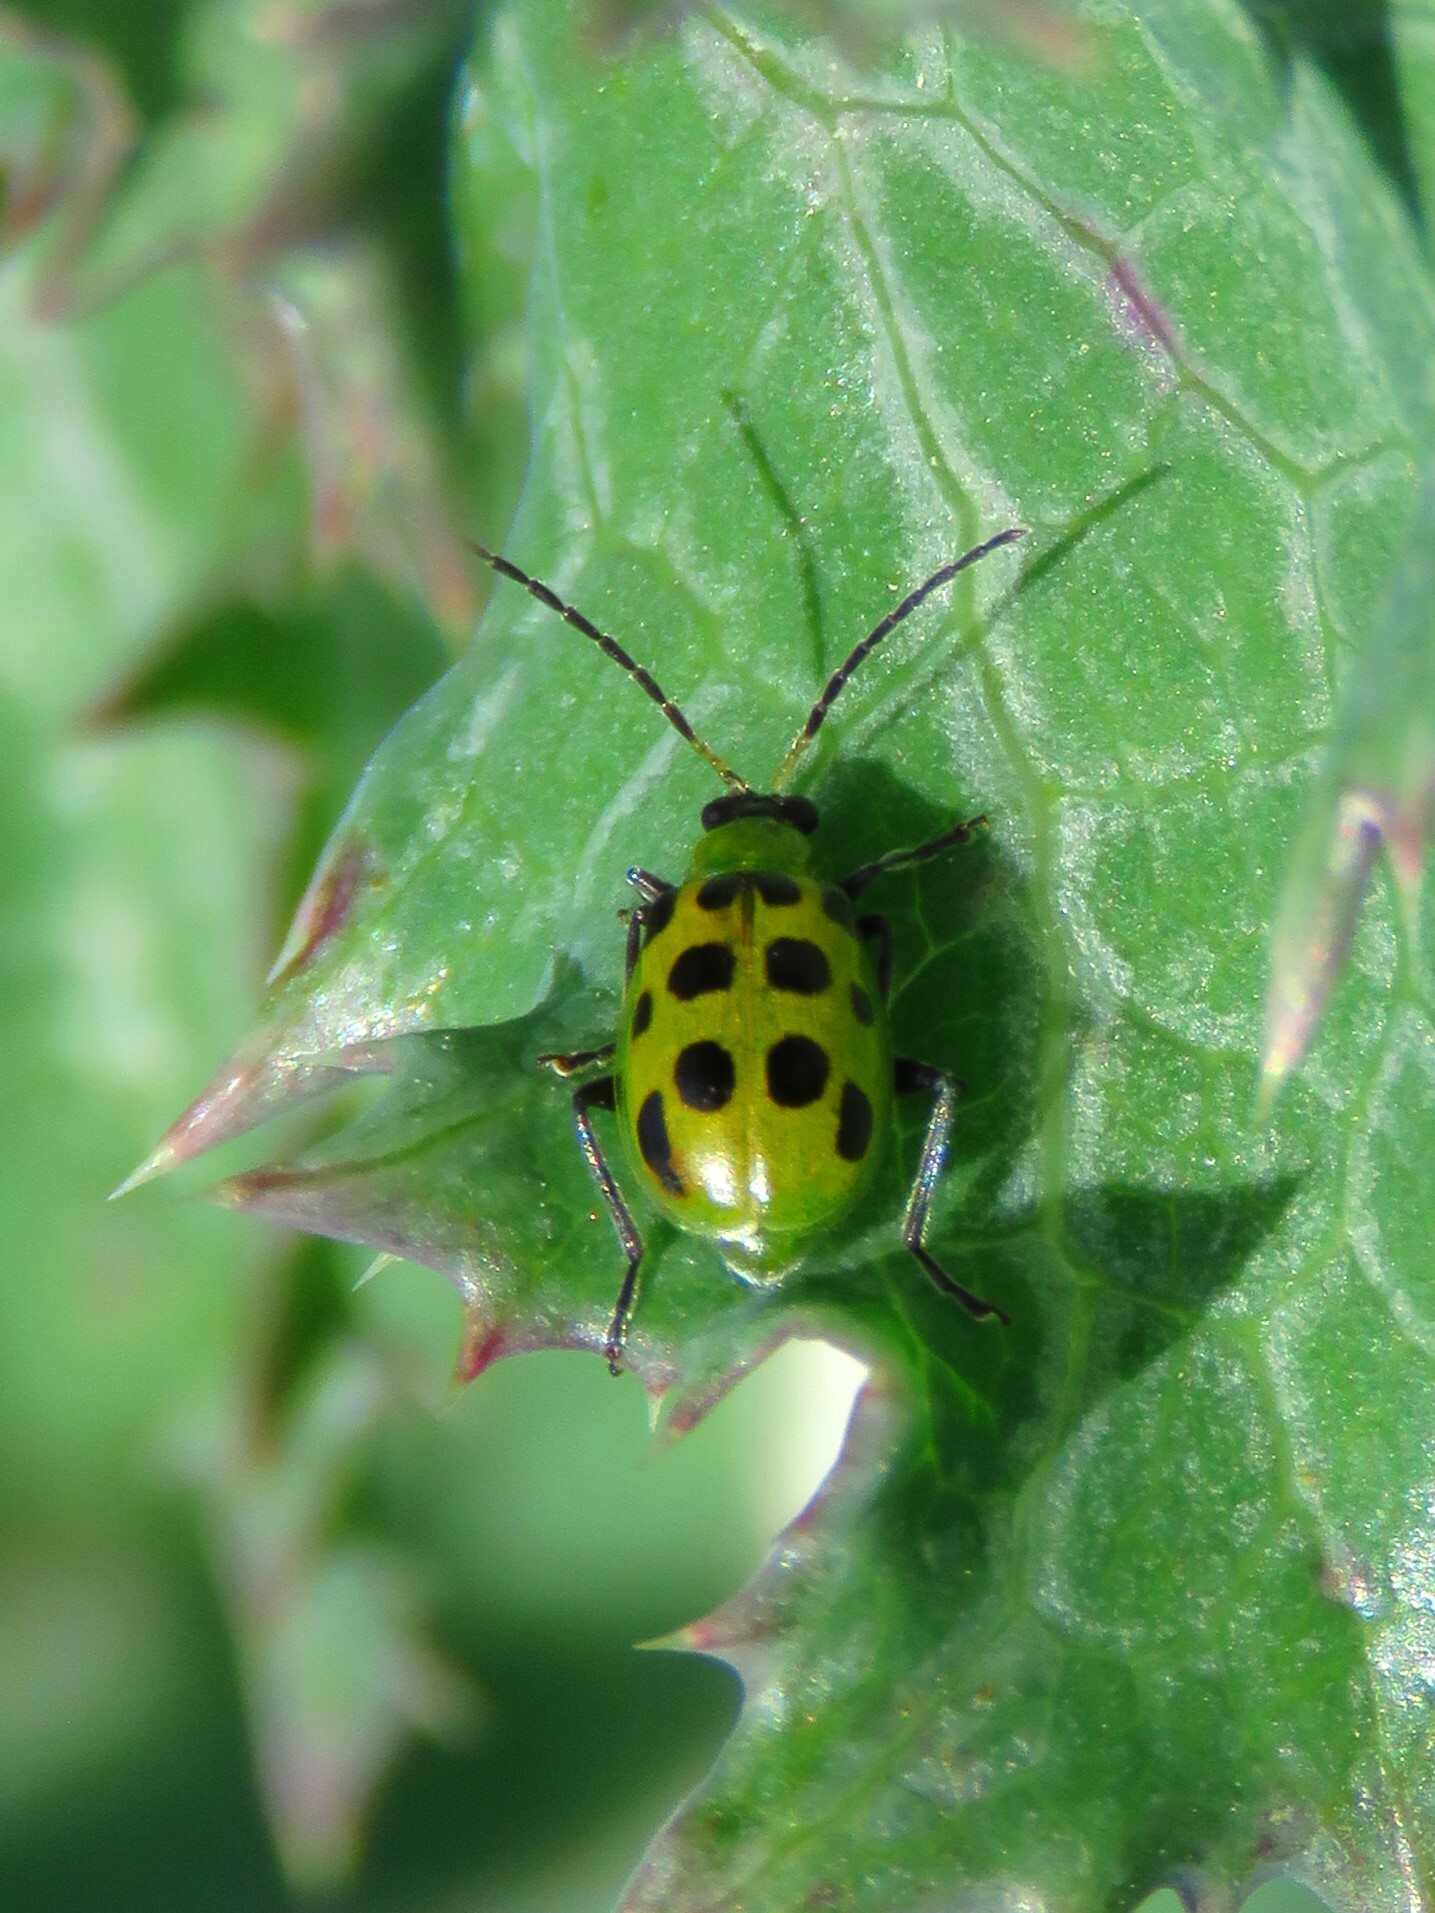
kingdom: Animalia
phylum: Arthropoda
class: Insecta
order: Coleoptera
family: Chrysomelidae
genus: Diabrotica
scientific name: Diabrotica undecimpunctata
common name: Spotted cucumber beetle
